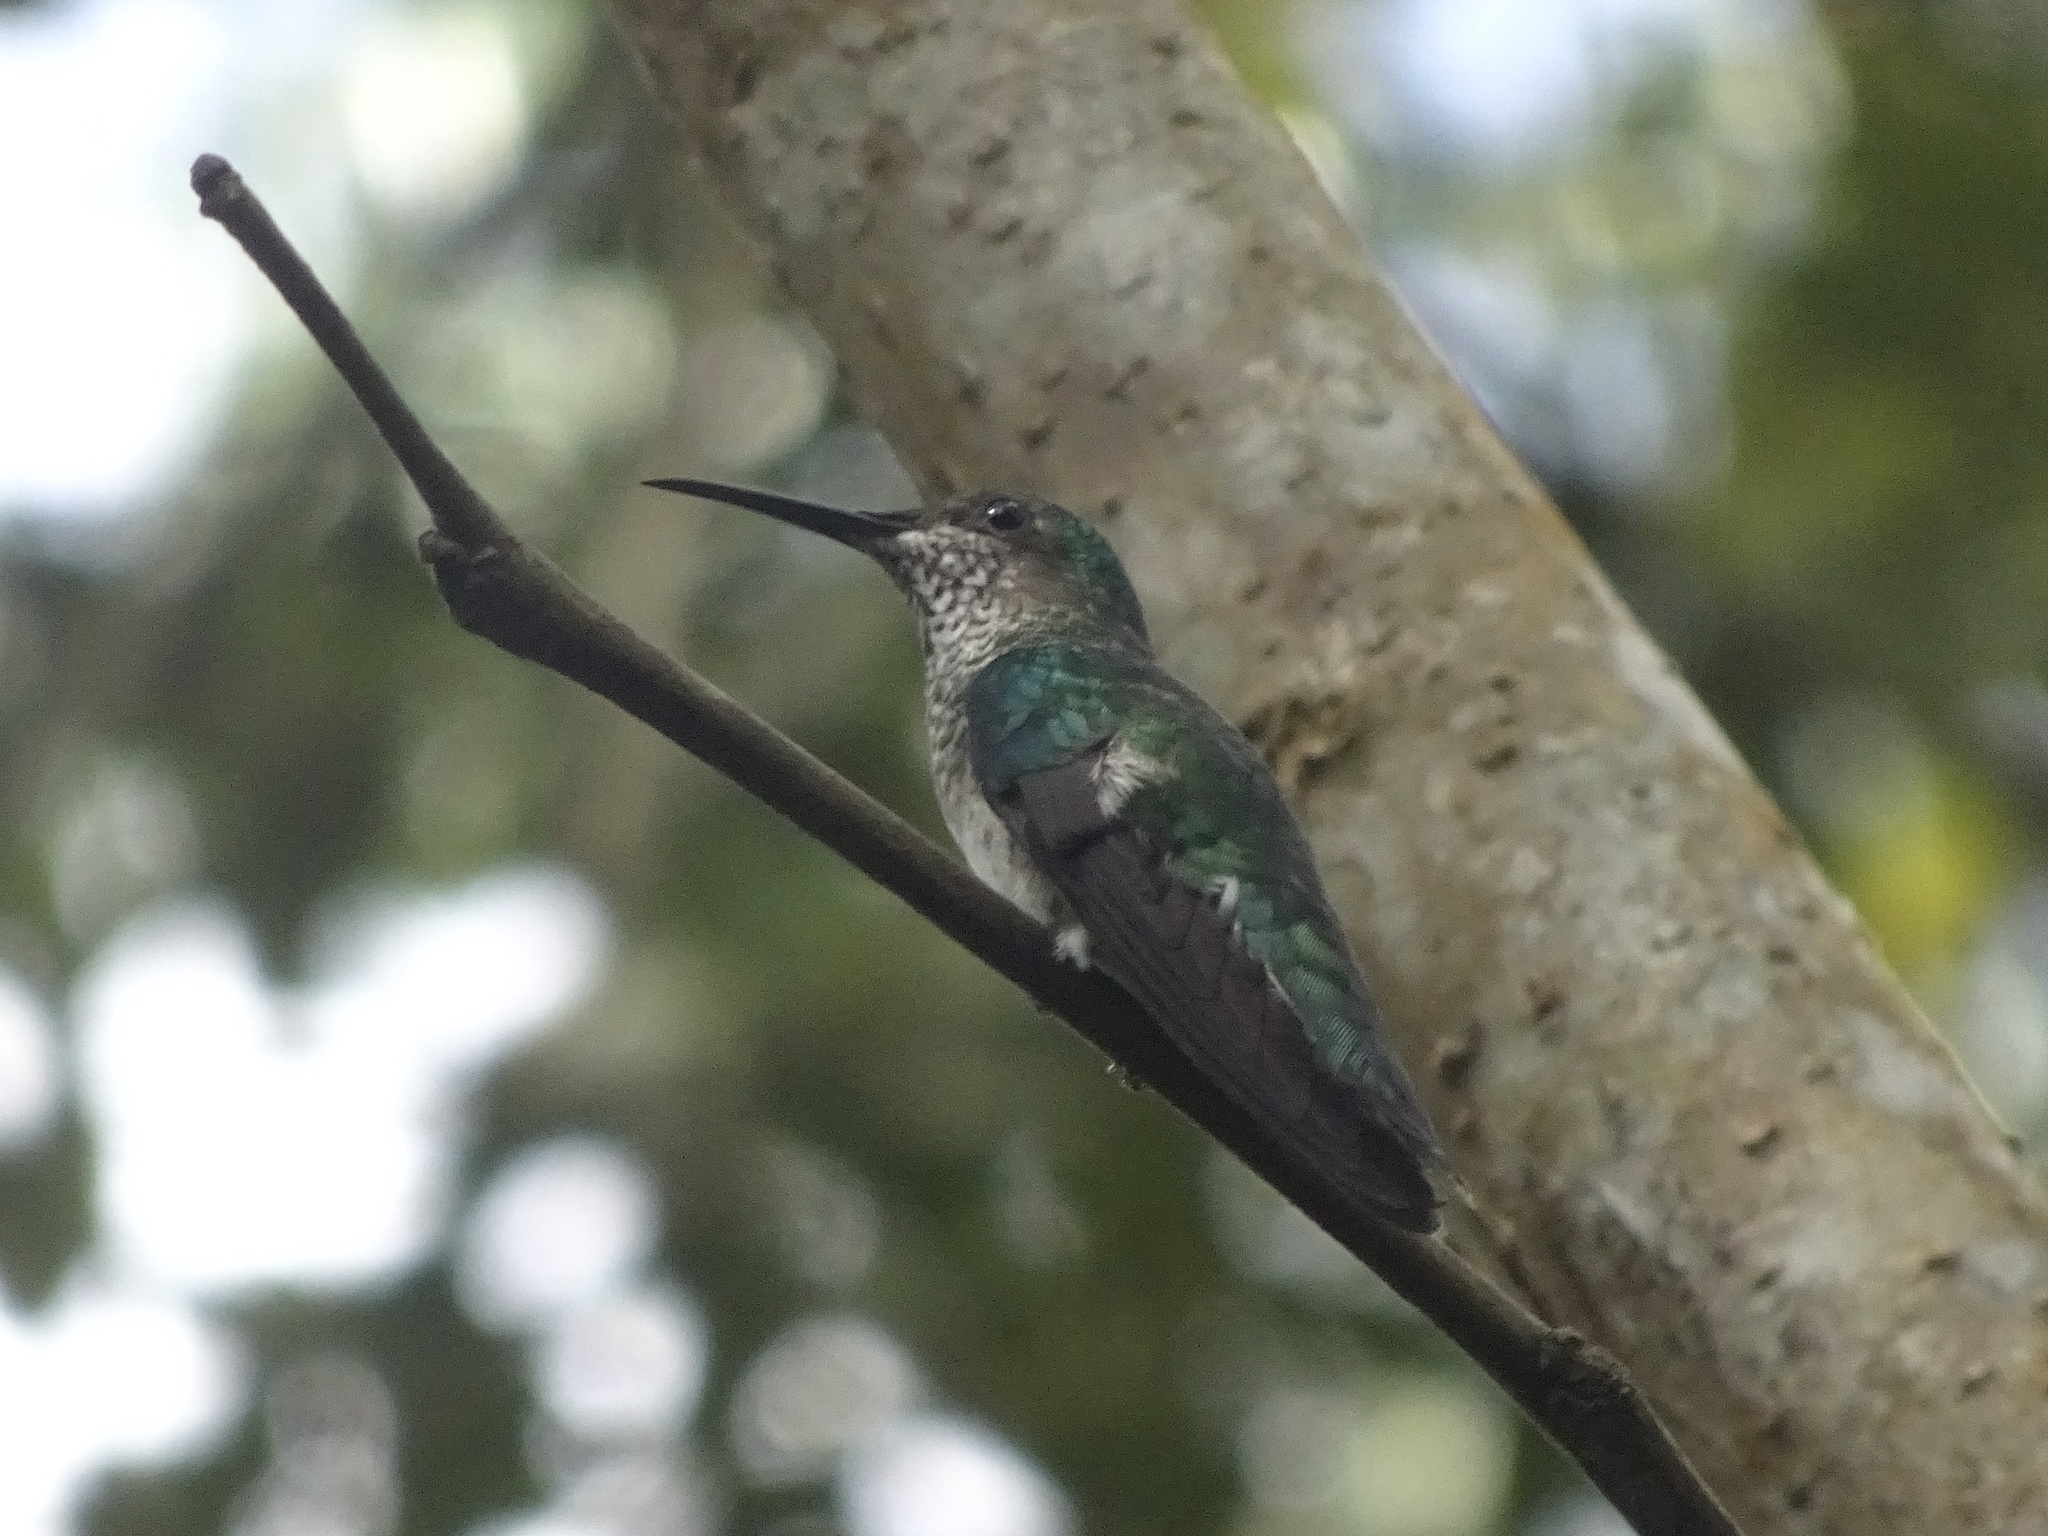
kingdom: Animalia
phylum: Chordata
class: Aves
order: Apodiformes
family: Trochilidae
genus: Florisuga
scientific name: Florisuga mellivora
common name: White-necked jacobin
